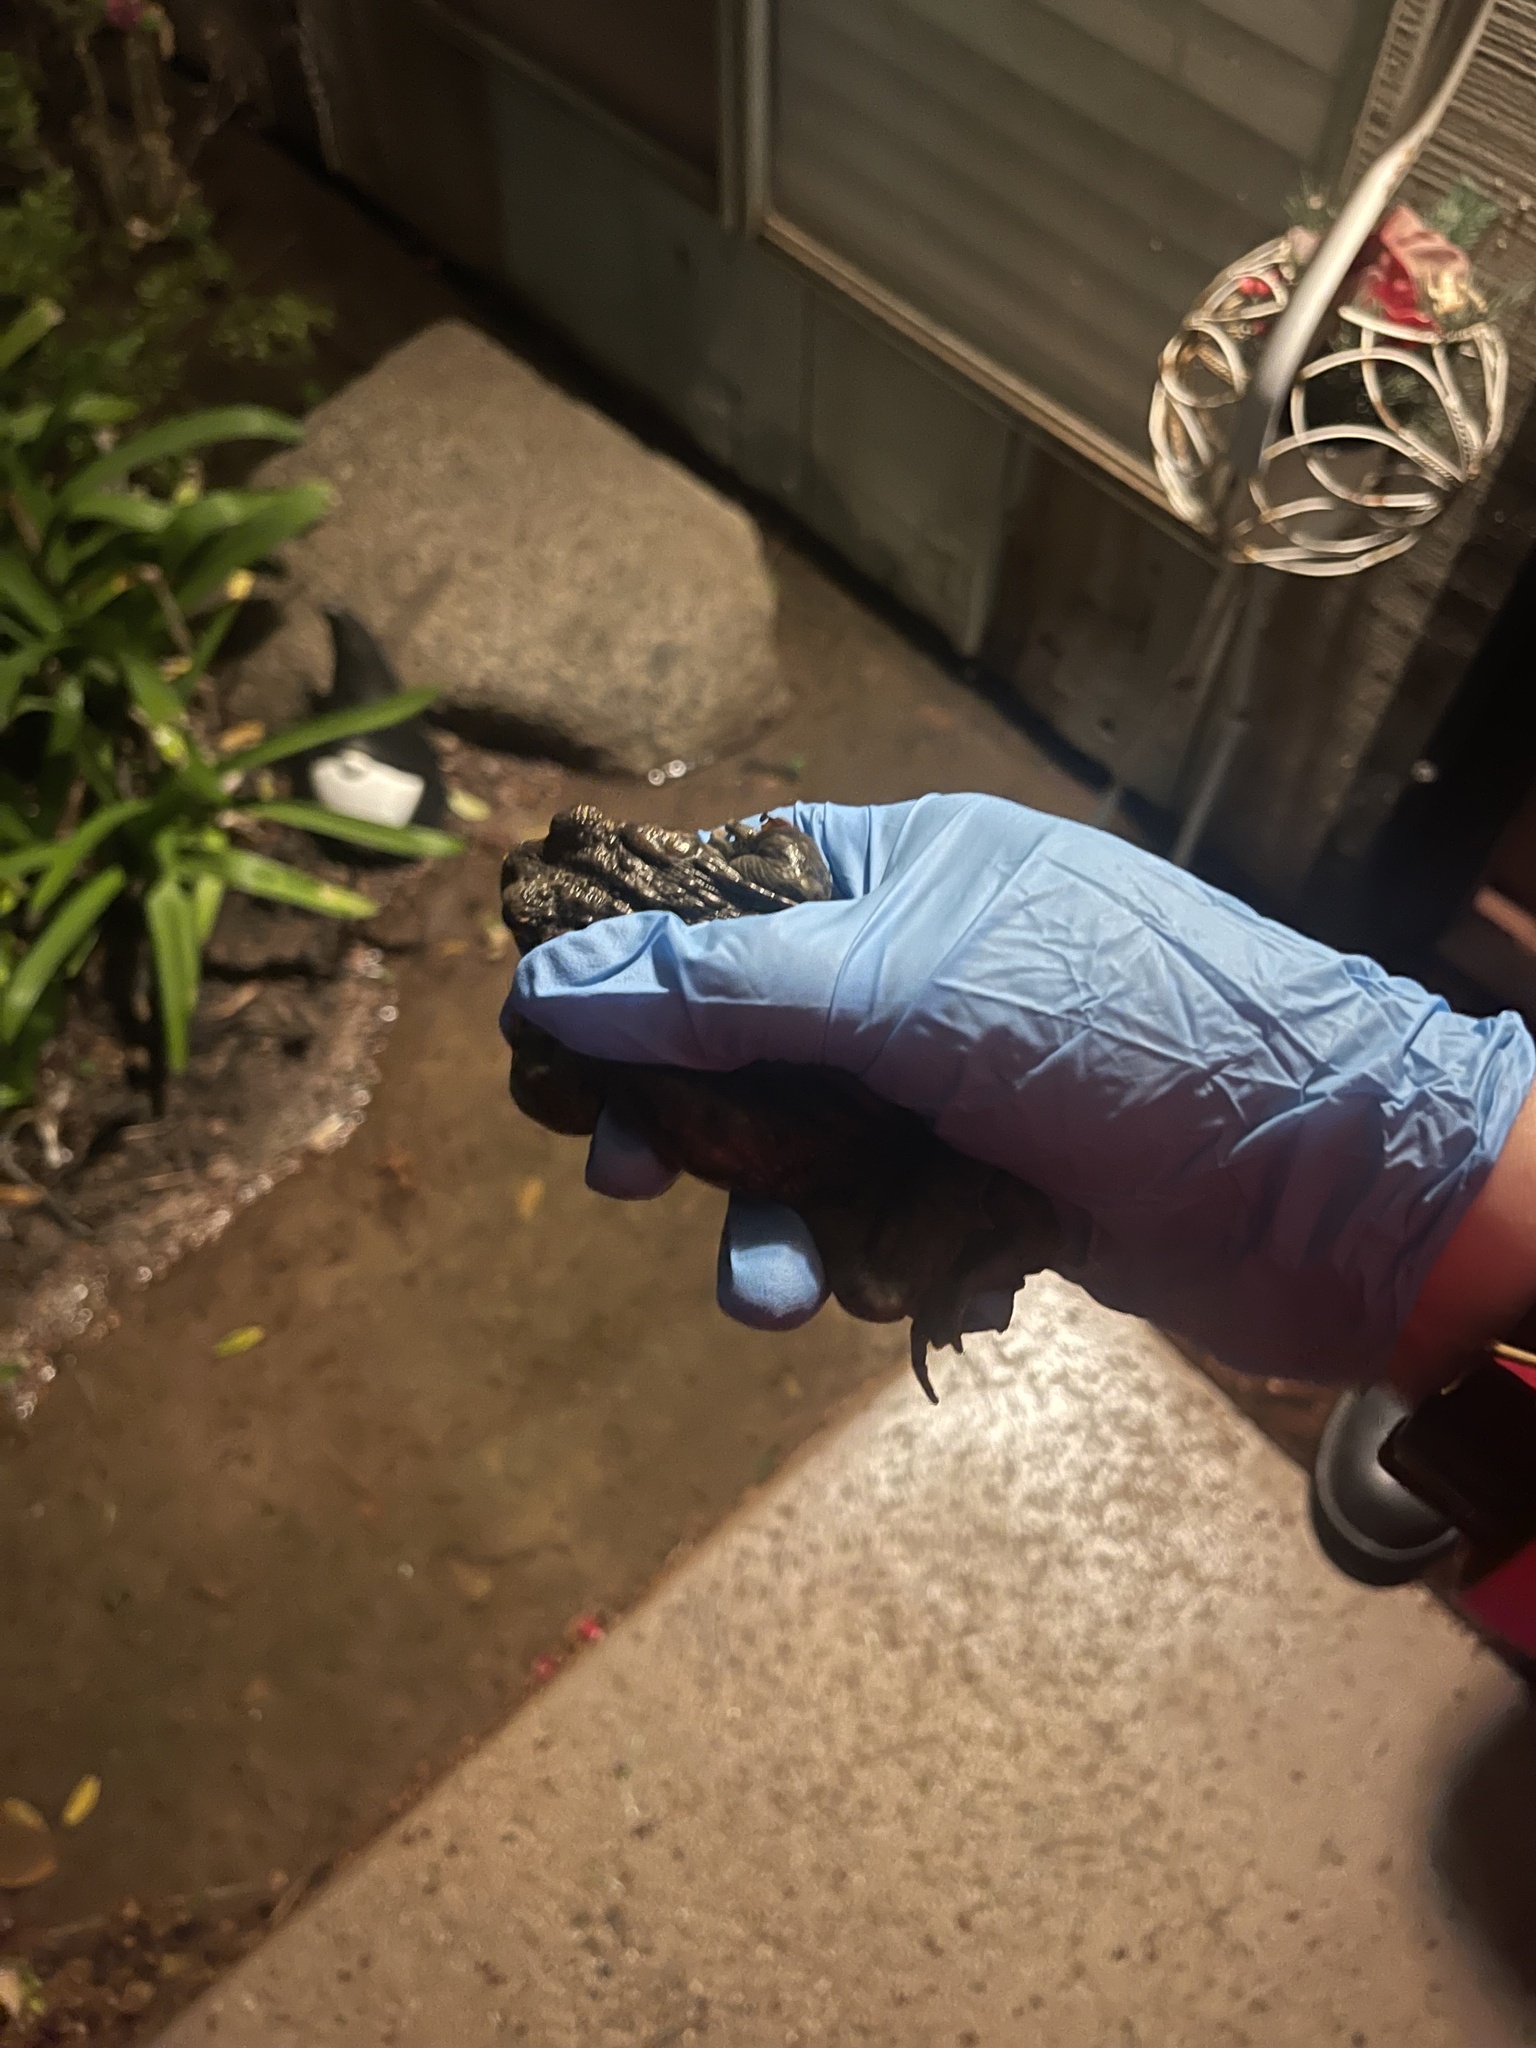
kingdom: Animalia
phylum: Chordata
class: Amphibia
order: Anura
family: Bufonidae
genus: Anaxyrus
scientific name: Anaxyrus boreas
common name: Western toad
